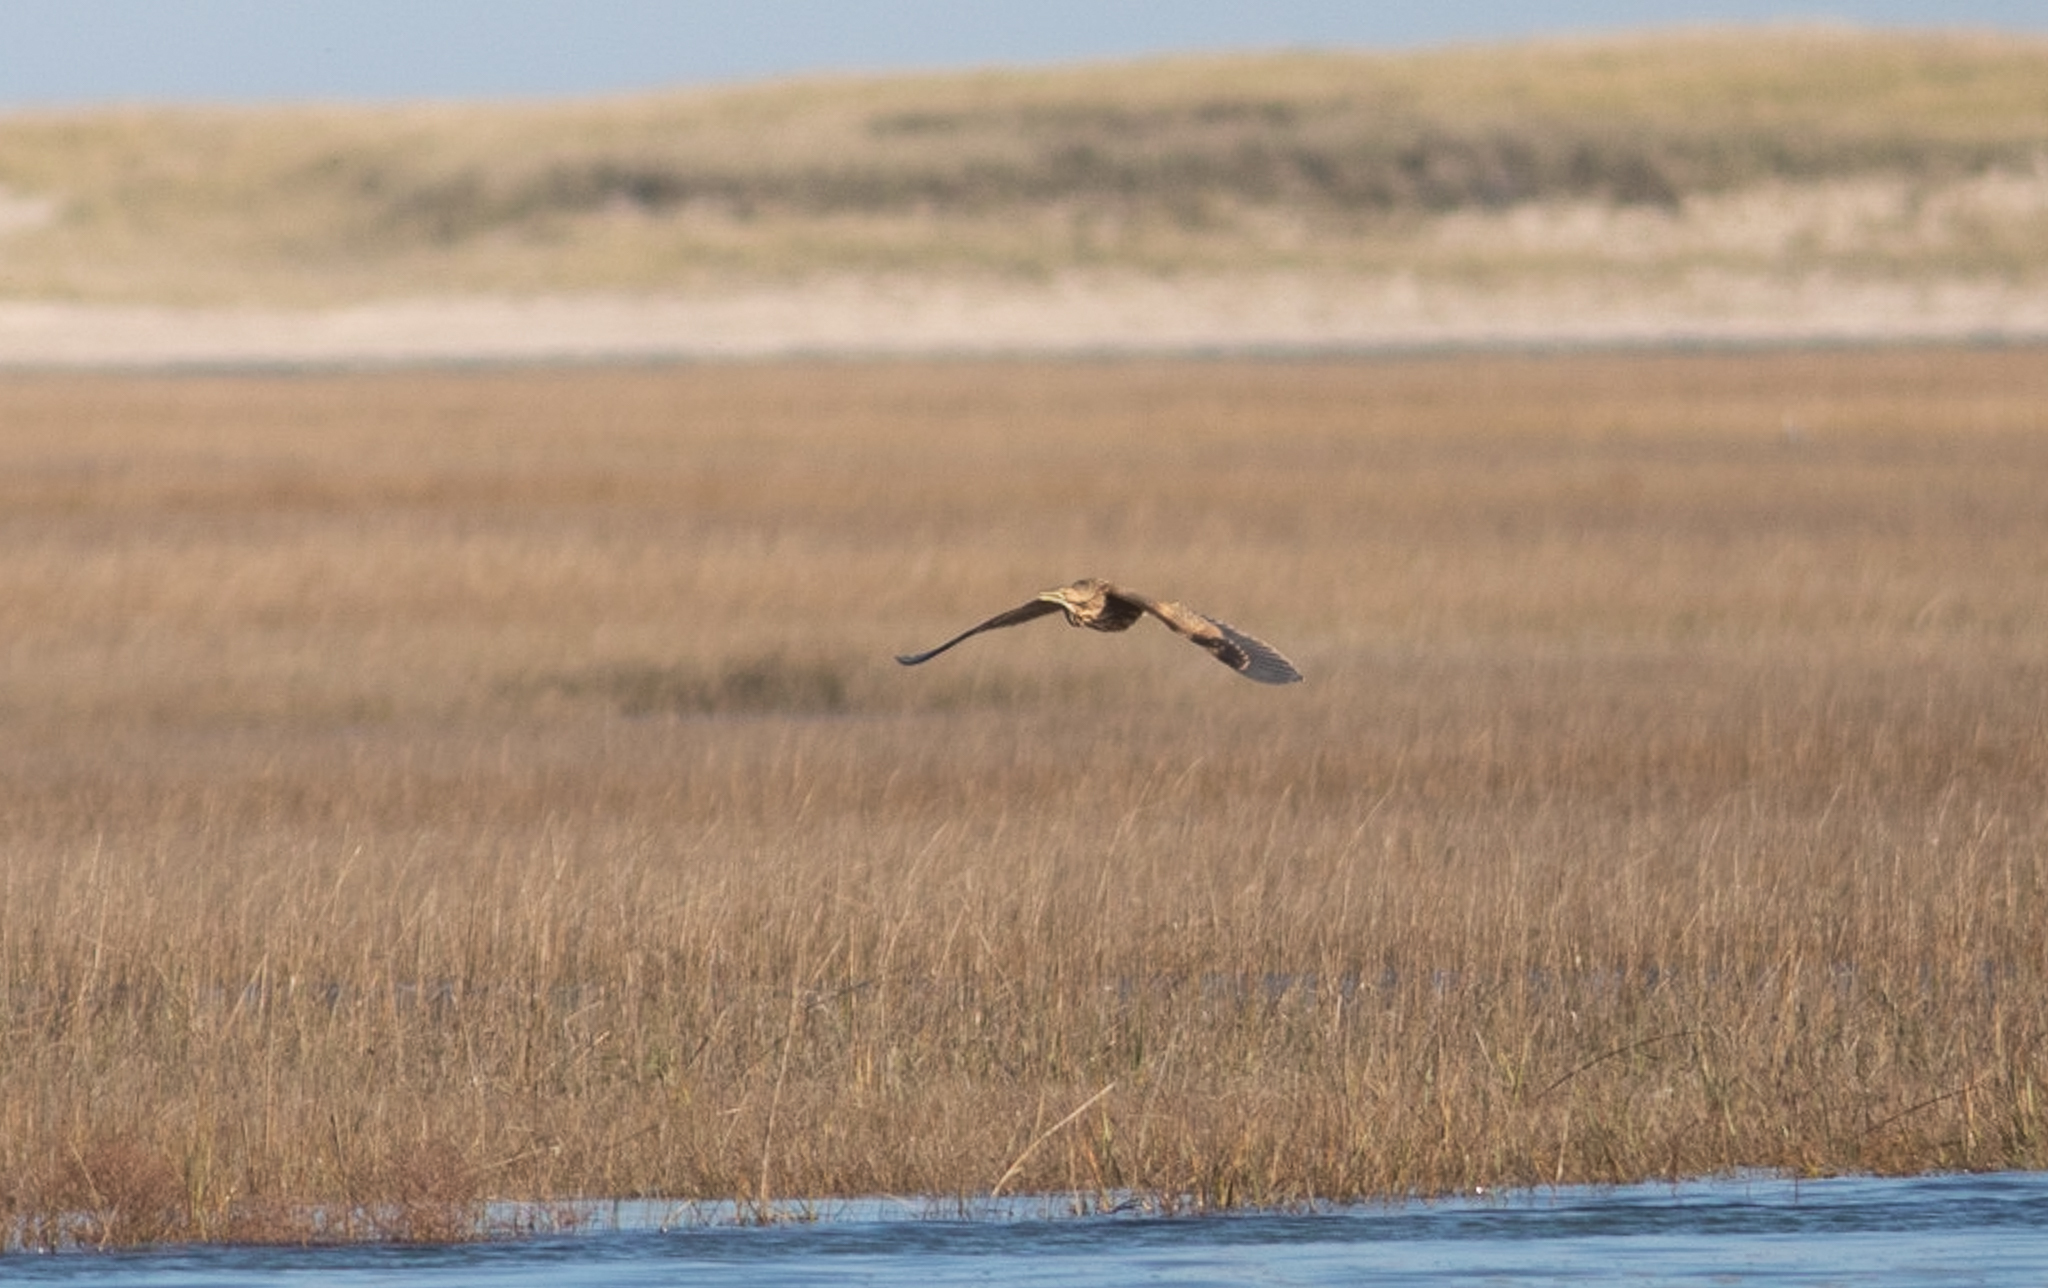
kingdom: Animalia
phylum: Chordata
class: Aves
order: Pelecaniformes
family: Ardeidae
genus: Botaurus
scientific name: Botaurus lentiginosus
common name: American bittern
